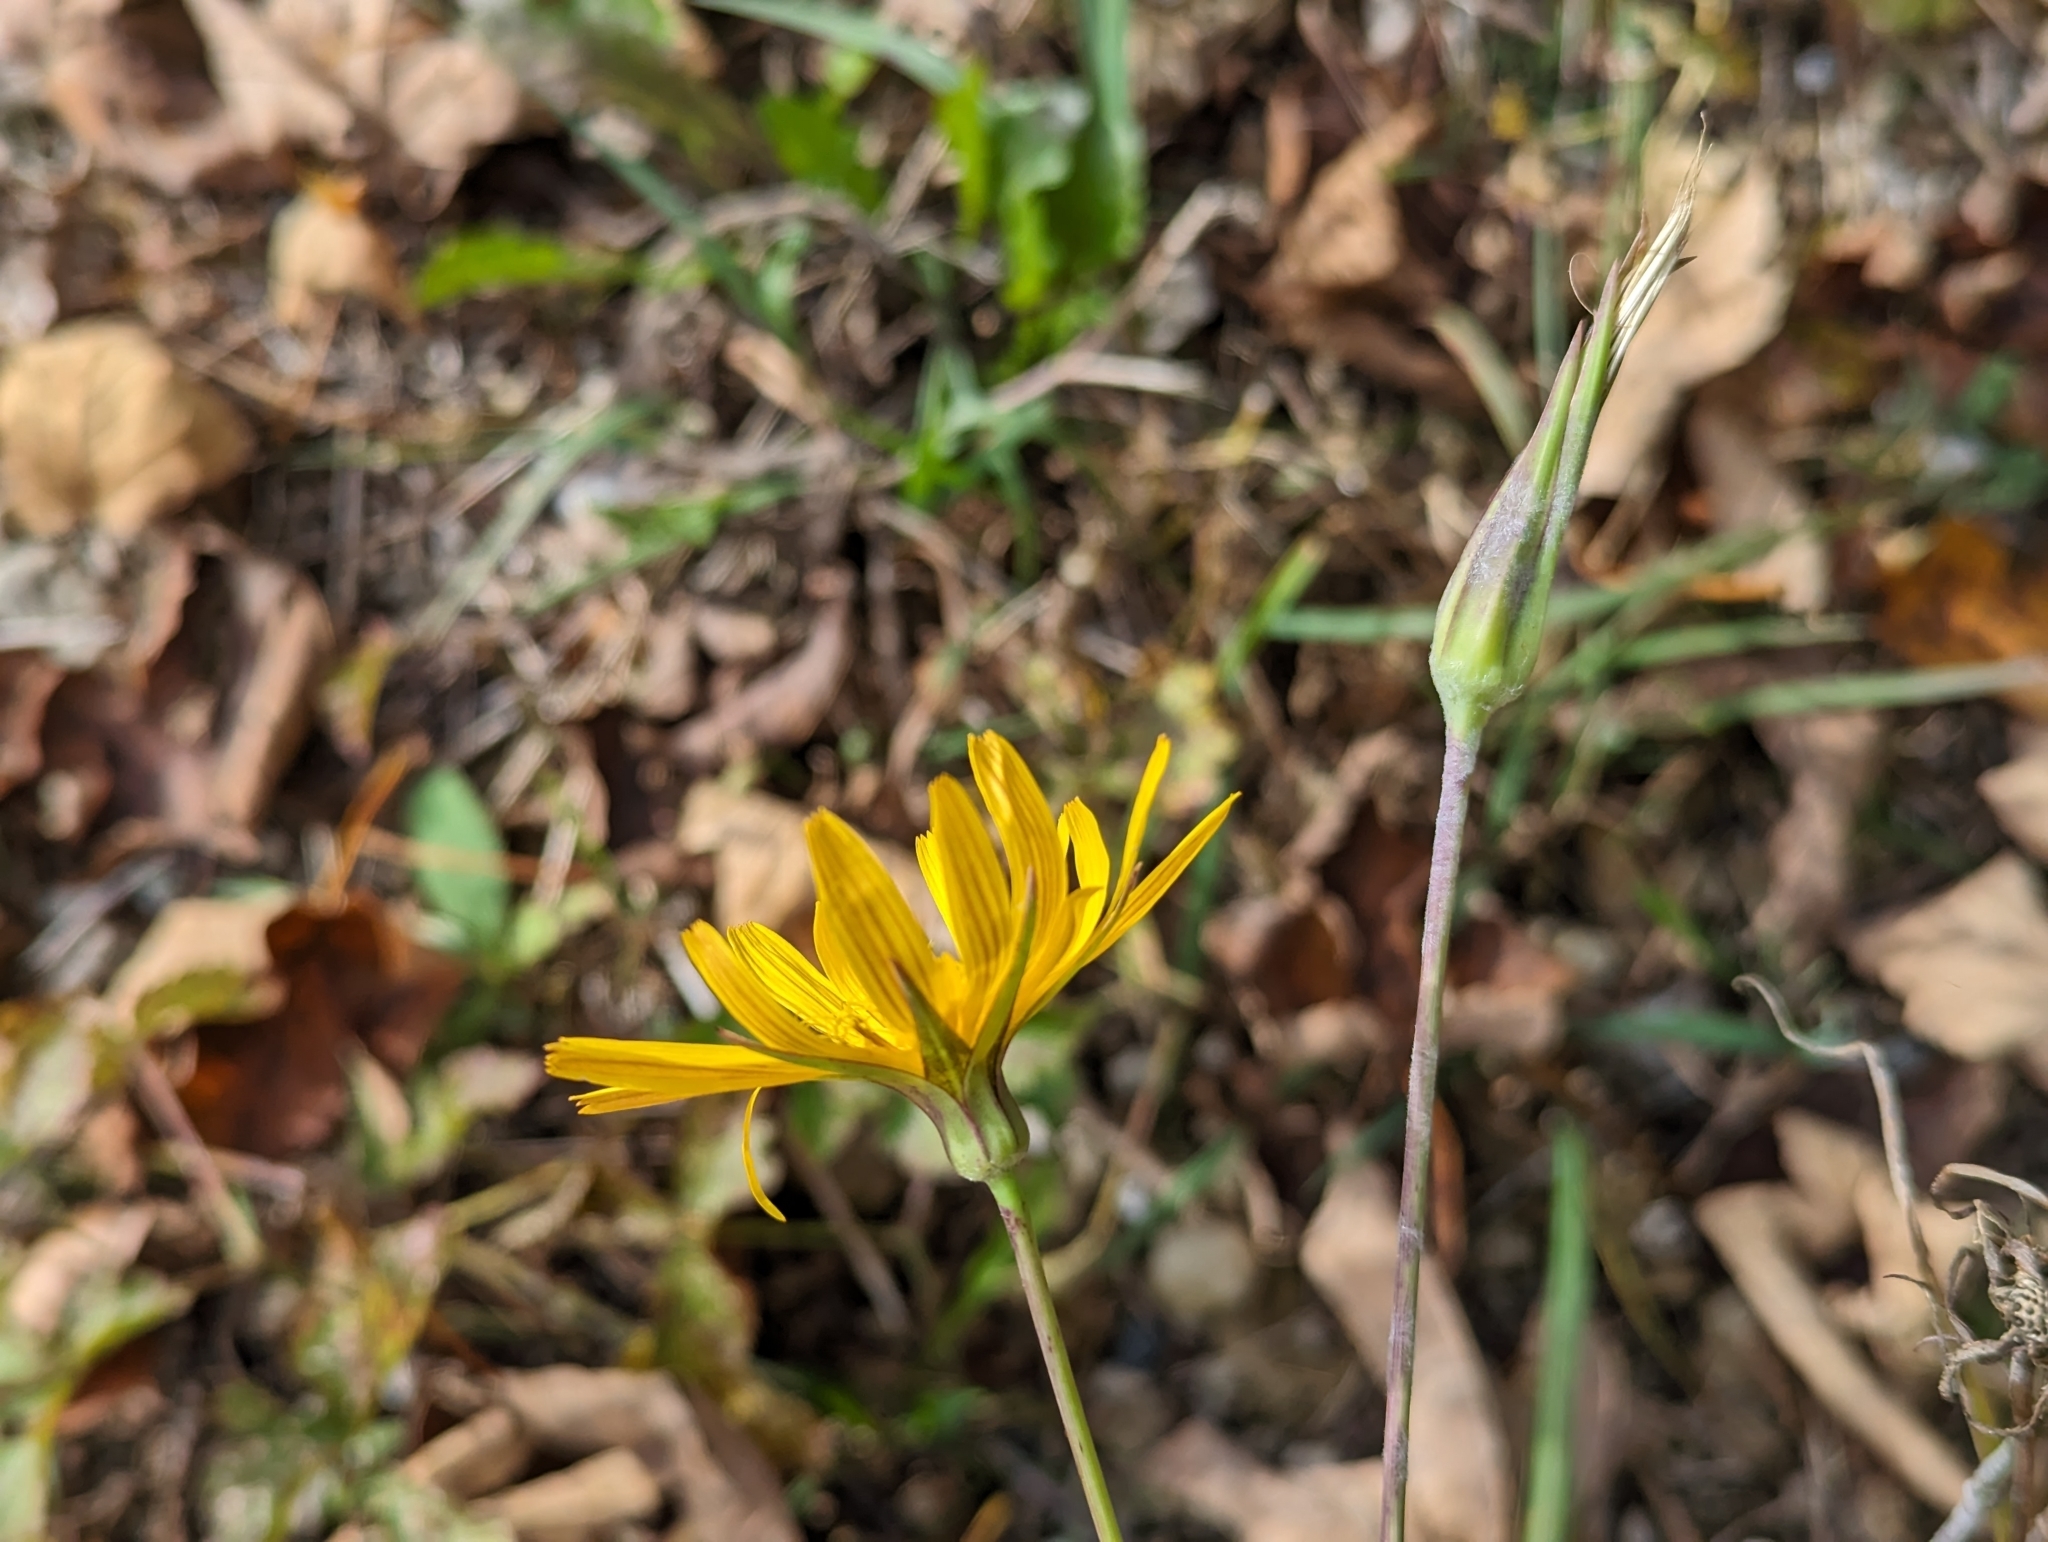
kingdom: Plantae
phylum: Tracheophyta
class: Magnoliopsida
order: Asterales
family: Asteraceae
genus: Tragopogon
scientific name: Tragopogon orientalis
